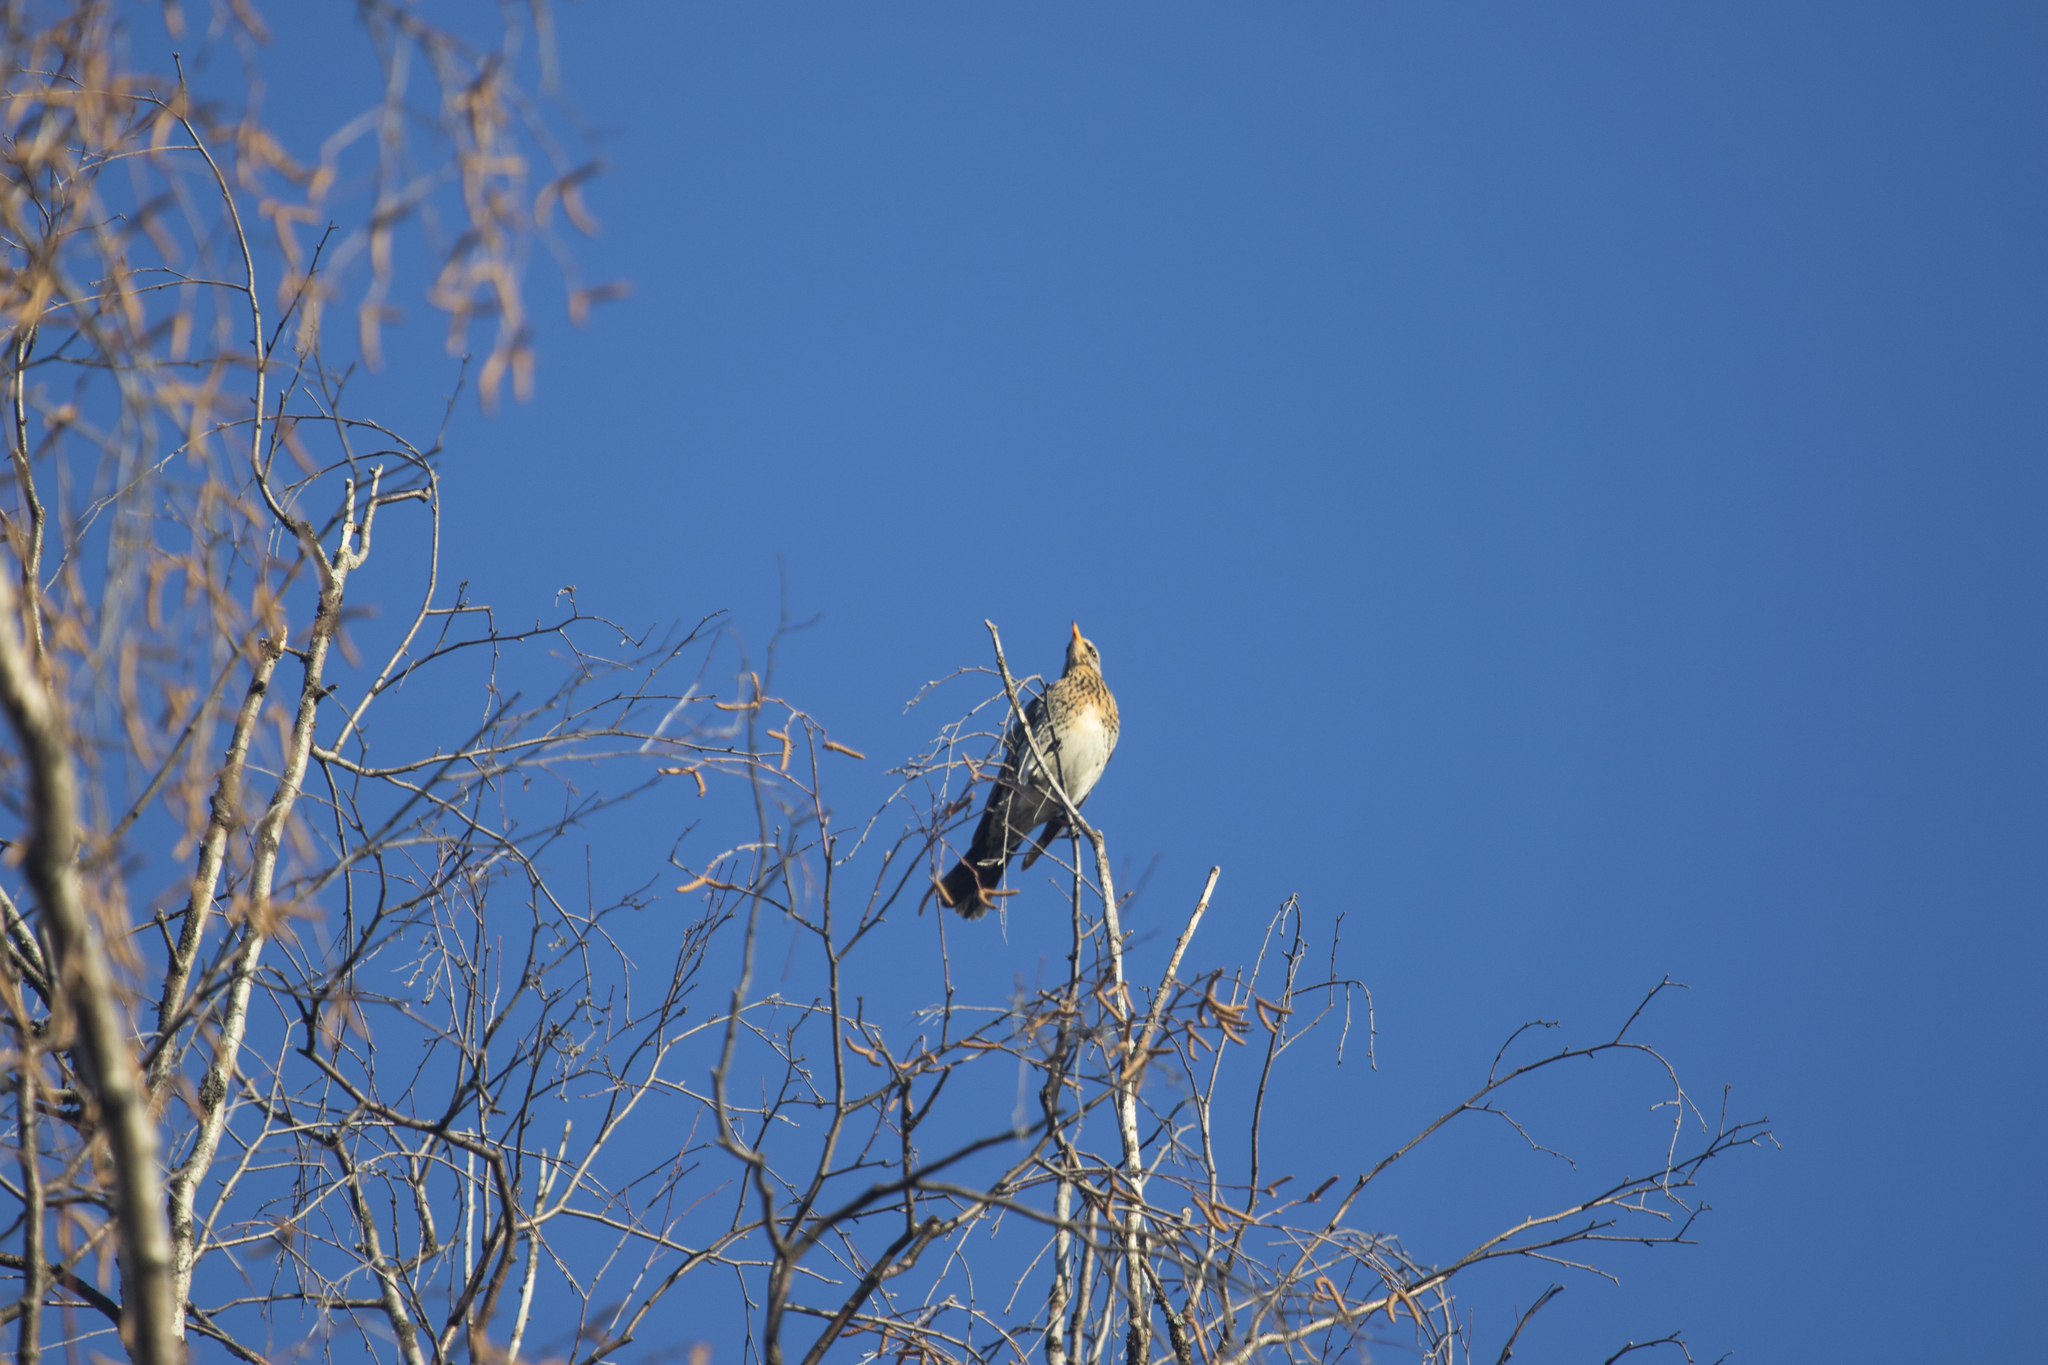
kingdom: Animalia
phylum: Chordata
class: Aves
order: Passeriformes
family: Turdidae
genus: Turdus
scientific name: Turdus pilaris
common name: Fieldfare
